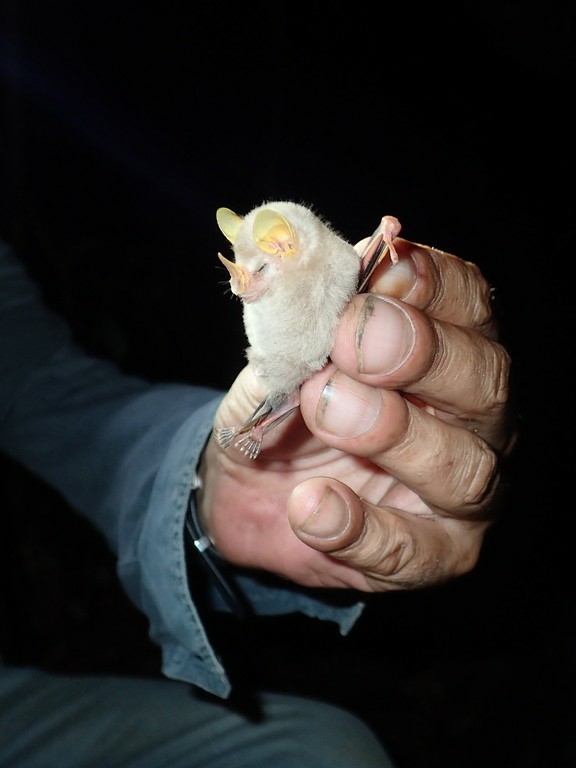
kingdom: Animalia
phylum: Chordata
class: Mammalia
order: Chiroptera
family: Phyllostomidae
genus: Mesophylla
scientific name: Mesophylla macconnelli
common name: Macconnell's bat
